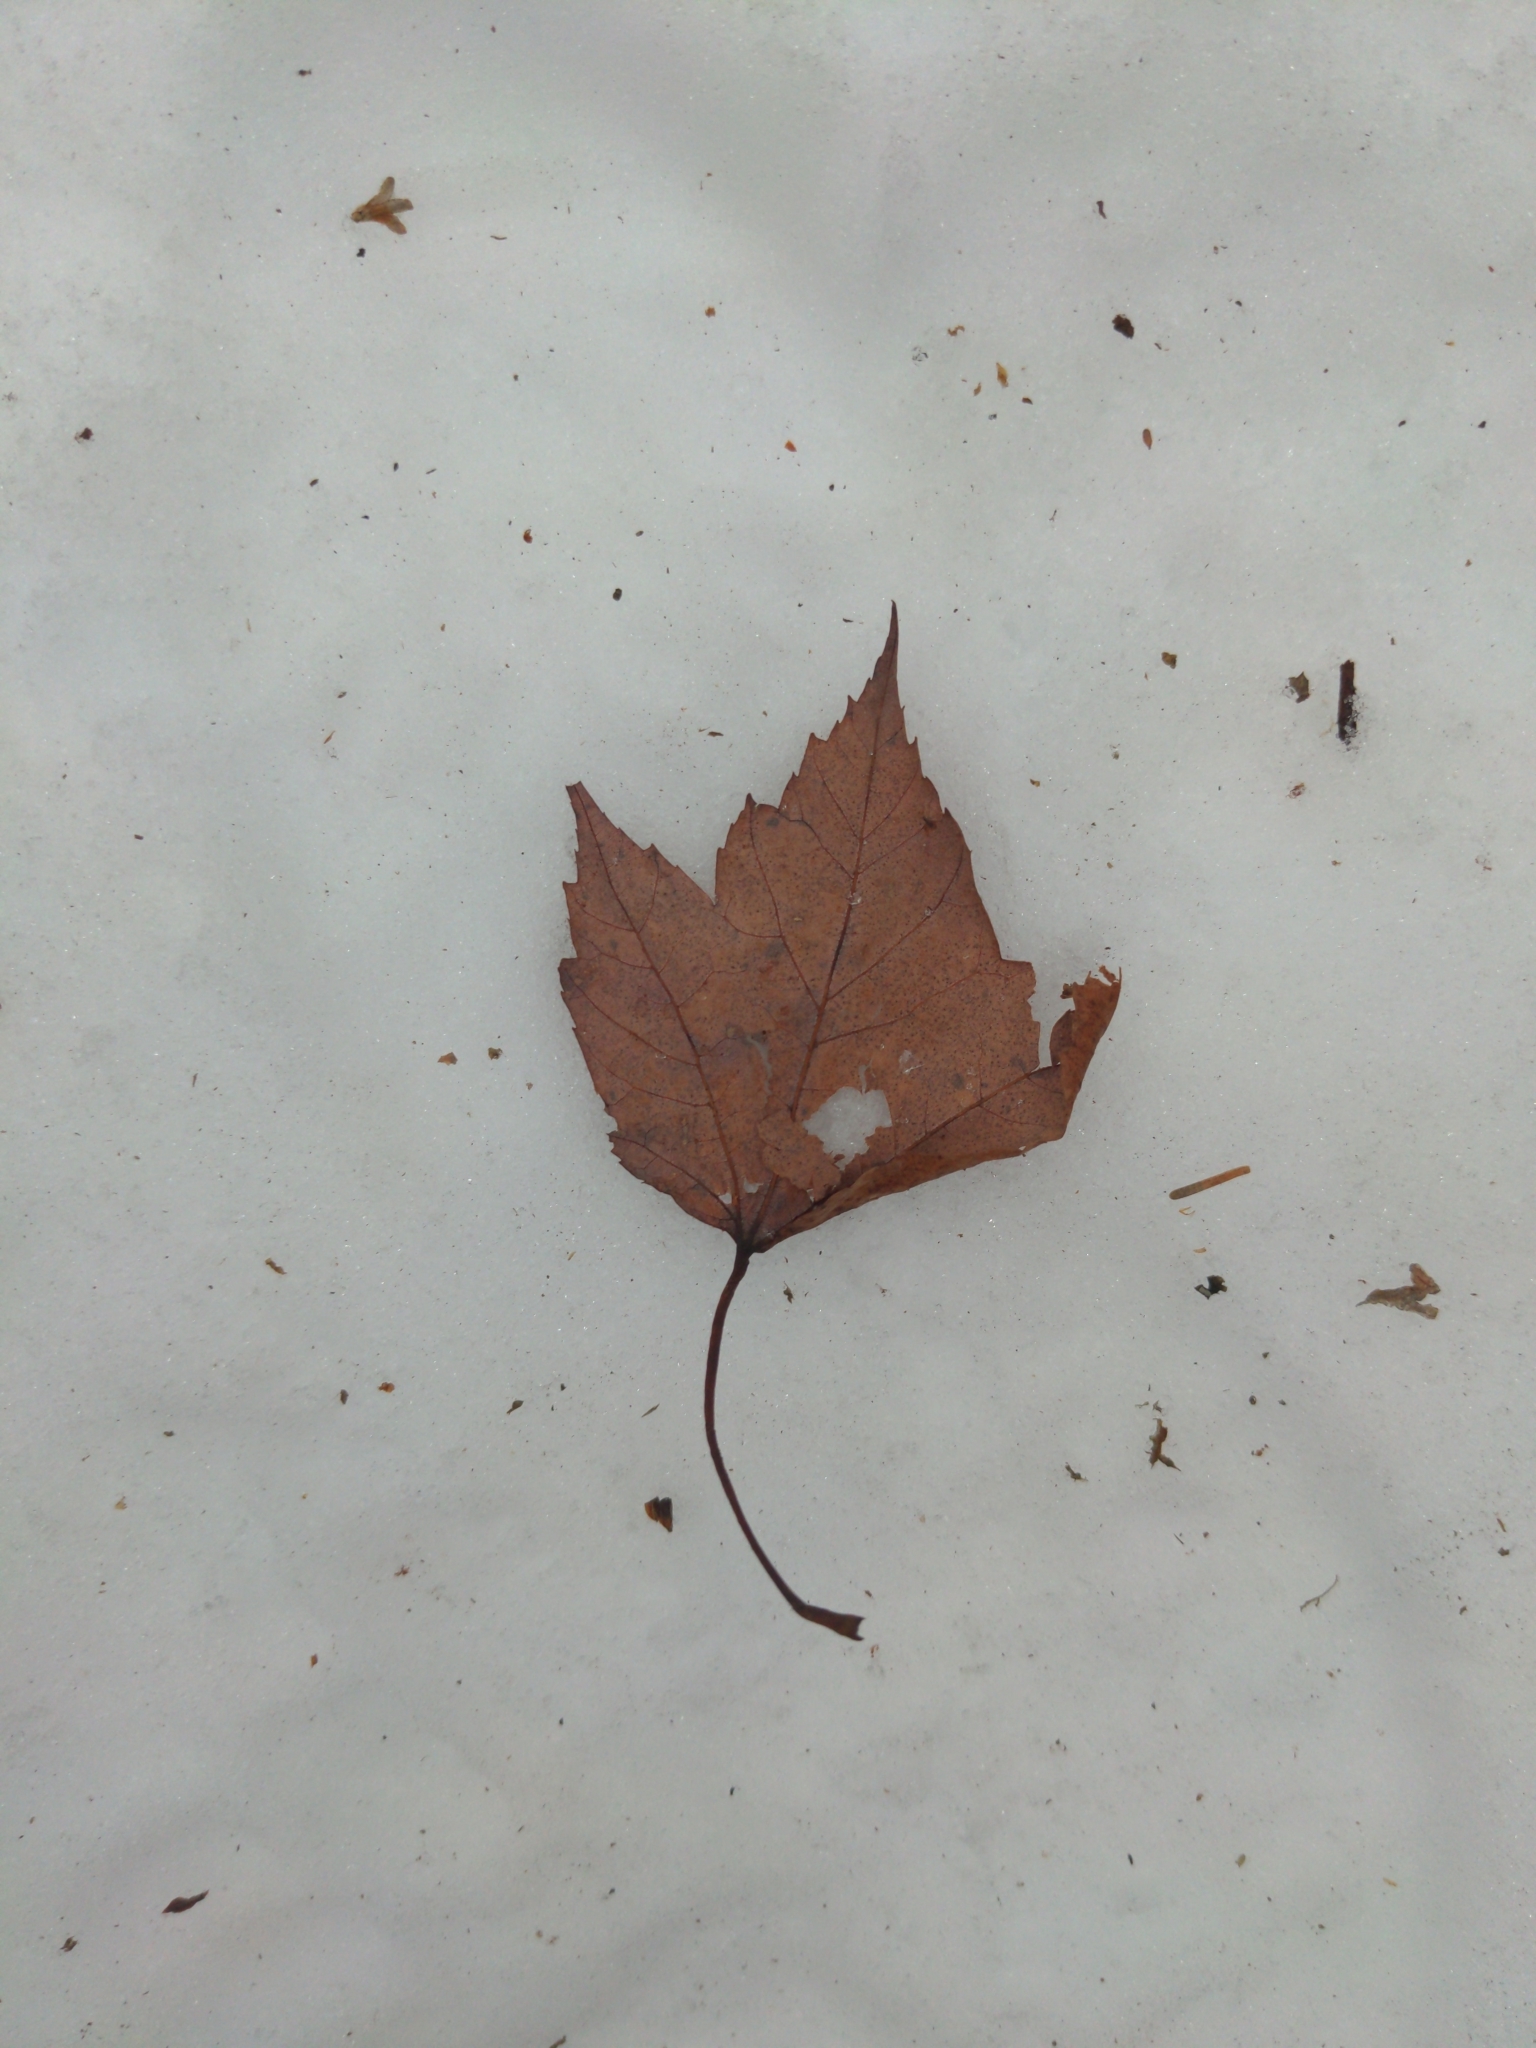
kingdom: Plantae
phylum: Tracheophyta
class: Magnoliopsida
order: Sapindales
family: Sapindaceae
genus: Acer
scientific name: Acer rubrum
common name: Red maple
